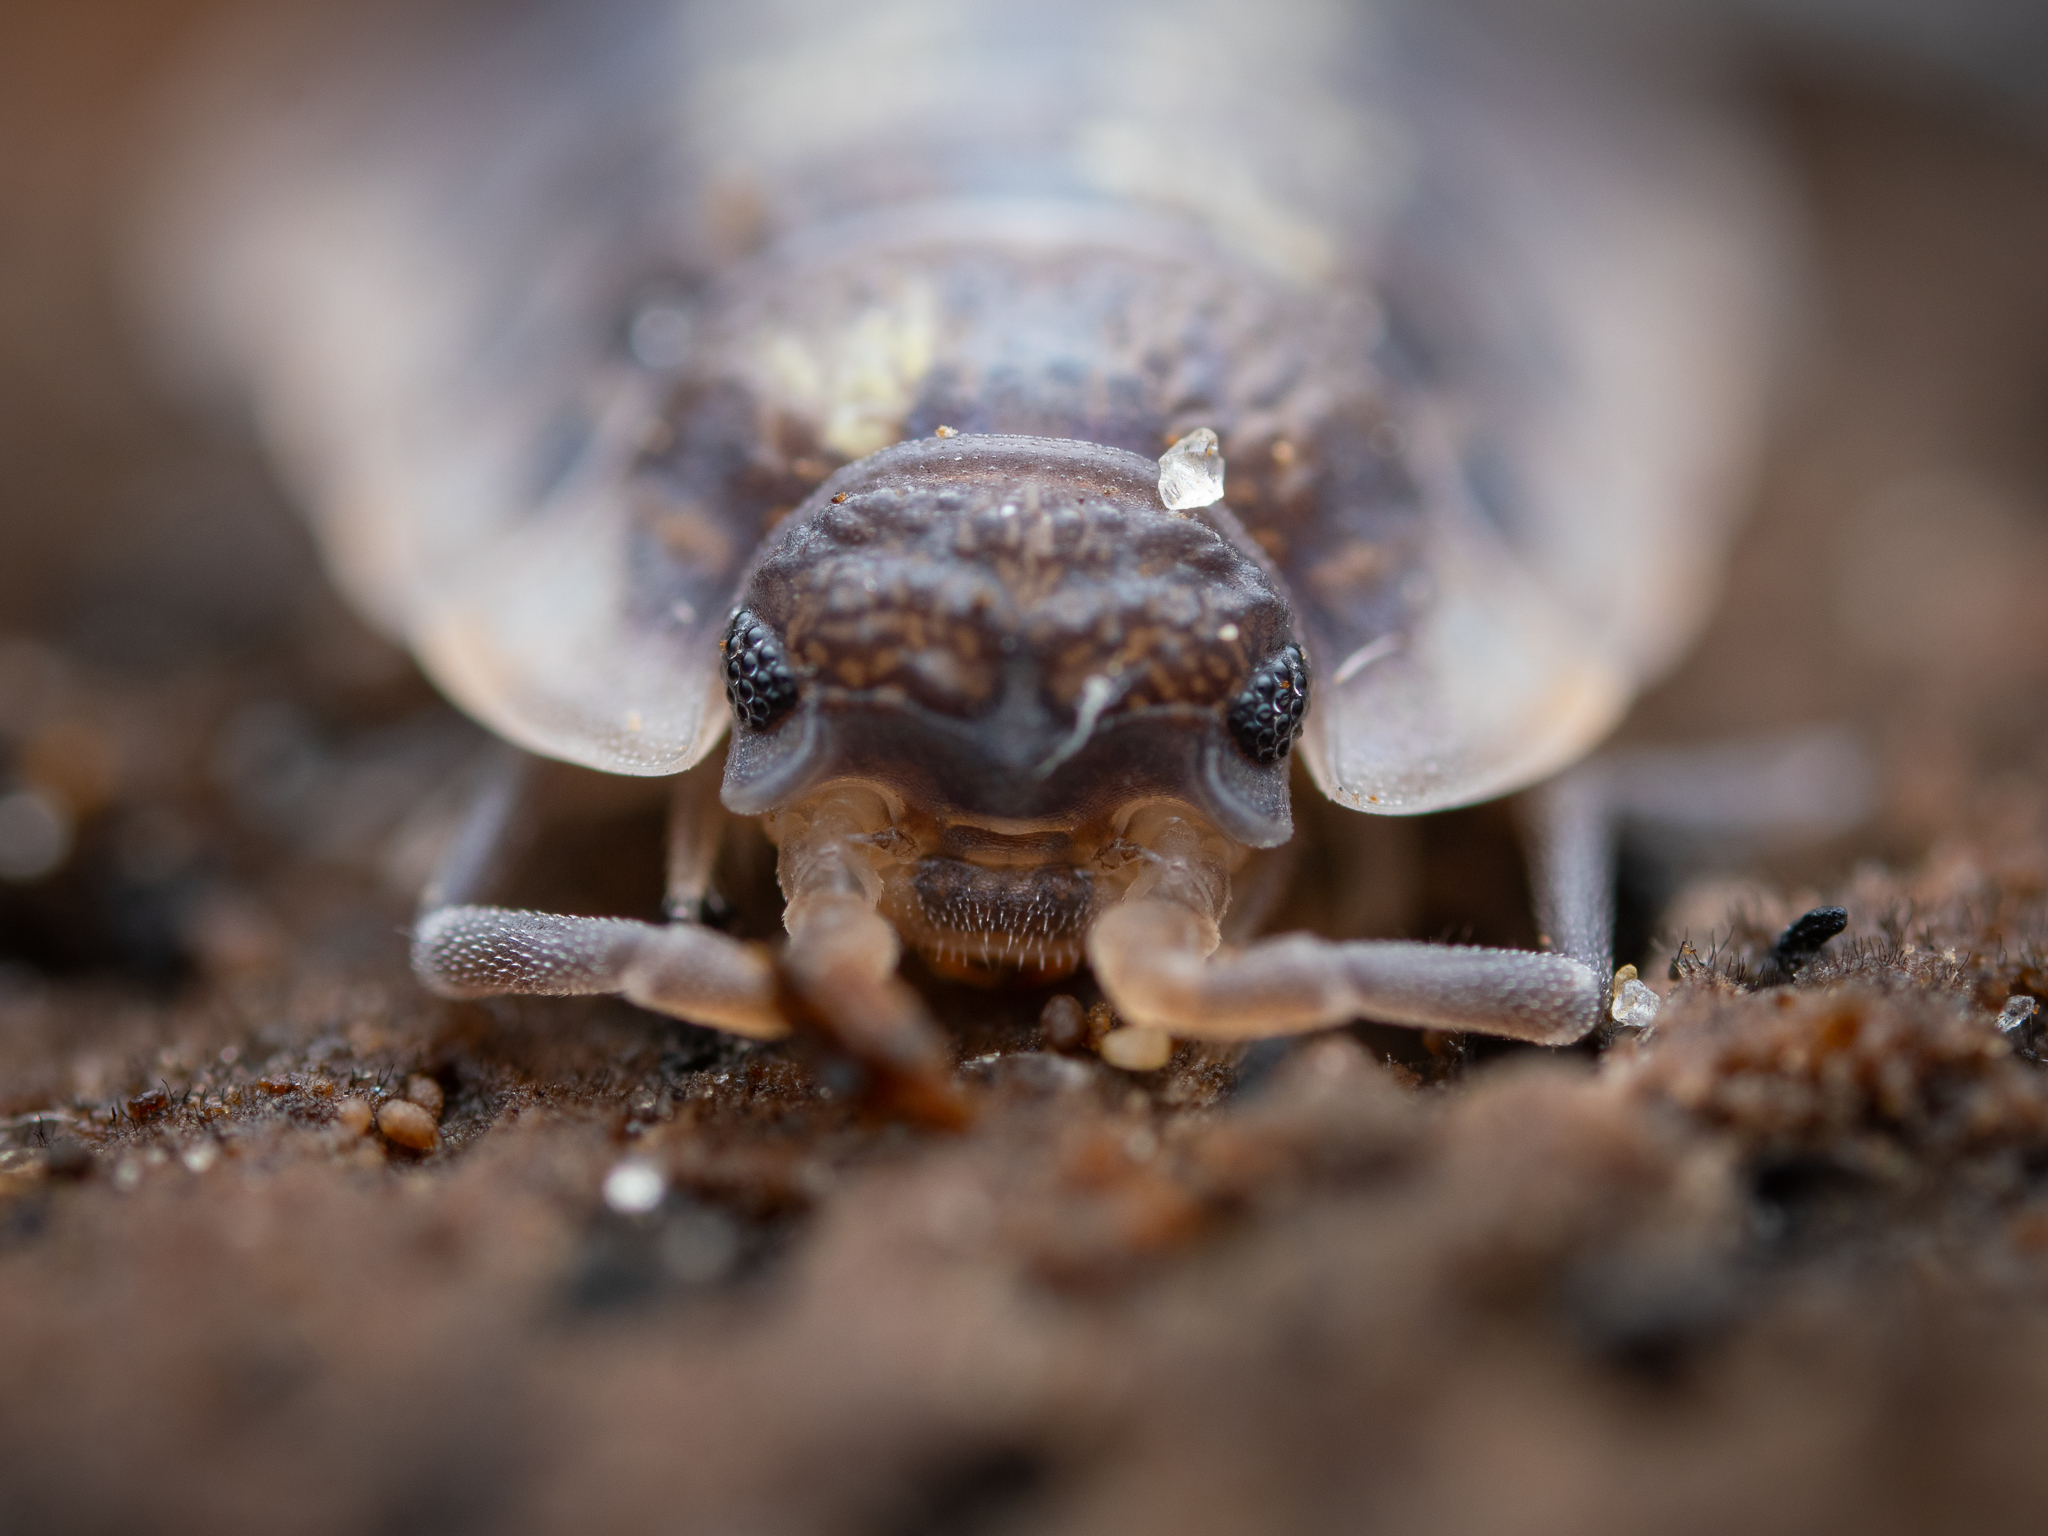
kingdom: Animalia
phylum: Arthropoda
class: Malacostraca
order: Isopoda
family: Oniscidae
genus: Oniscus
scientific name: Oniscus asellus
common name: Common shiny woodlouse
